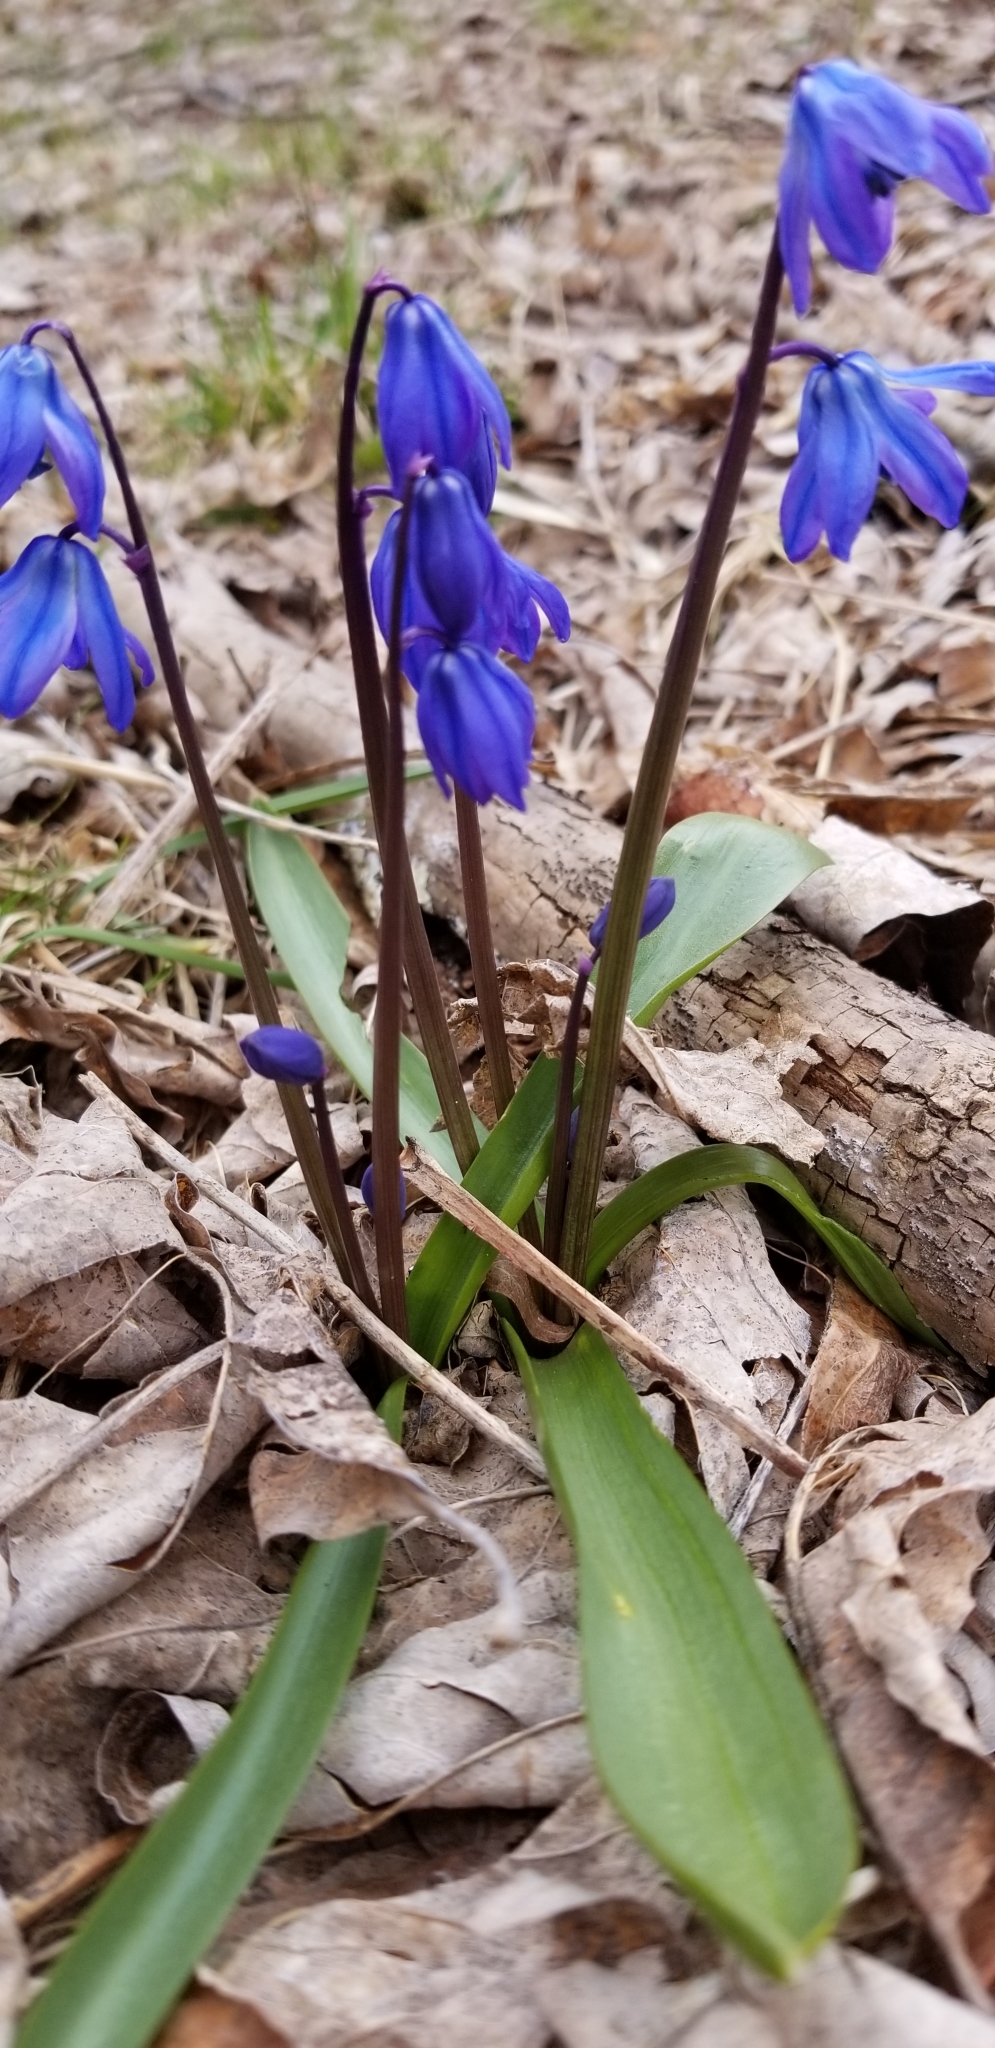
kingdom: Plantae
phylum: Tracheophyta
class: Liliopsida
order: Asparagales
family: Asparagaceae
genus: Scilla
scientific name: Scilla siberica
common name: Siberian squill
